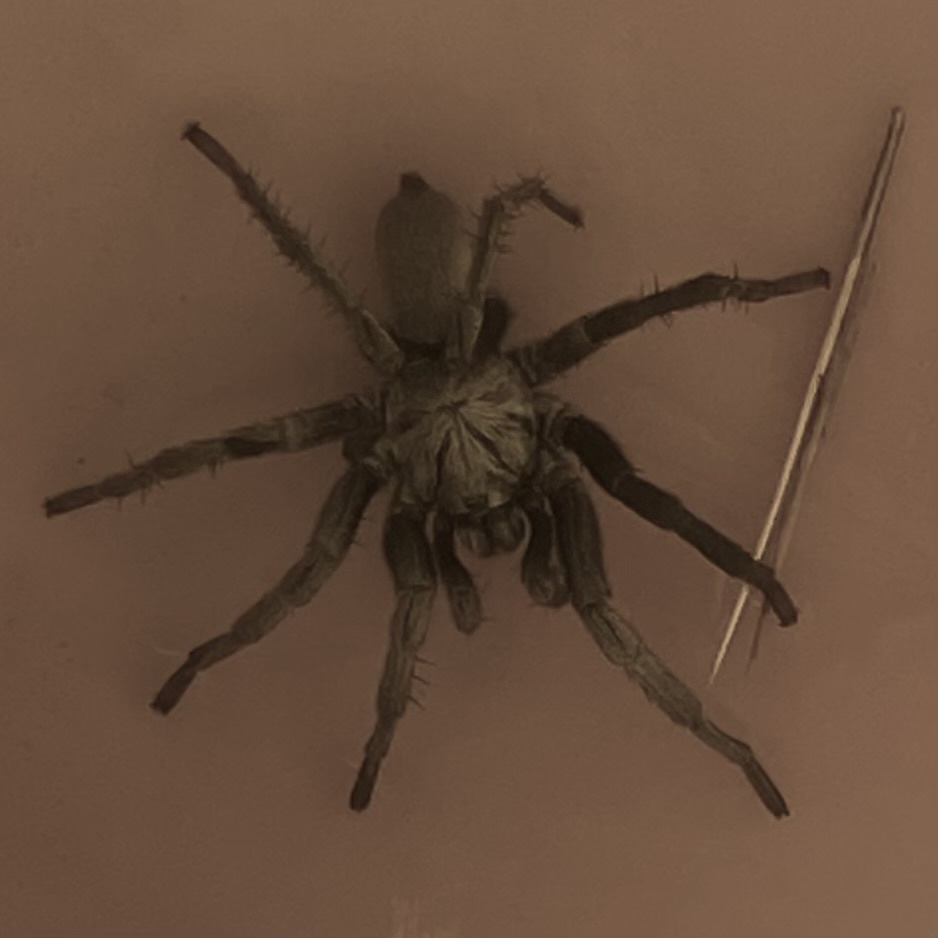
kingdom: Animalia
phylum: Arthropoda
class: Arachnida
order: Araneae
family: Nemesiidae
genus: Calisoga
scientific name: Calisoga longitarsis
